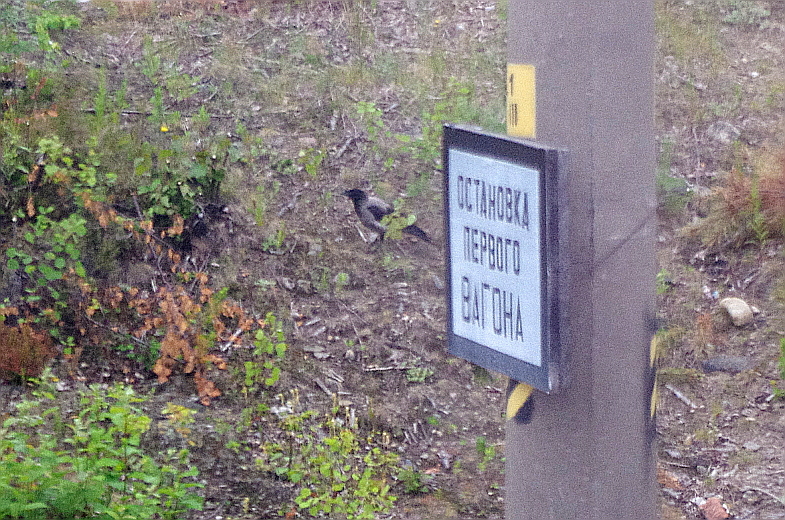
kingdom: Animalia
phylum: Chordata
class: Aves
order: Passeriformes
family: Corvidae
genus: Corvus
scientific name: Corvus cornix
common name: Hooded crow
